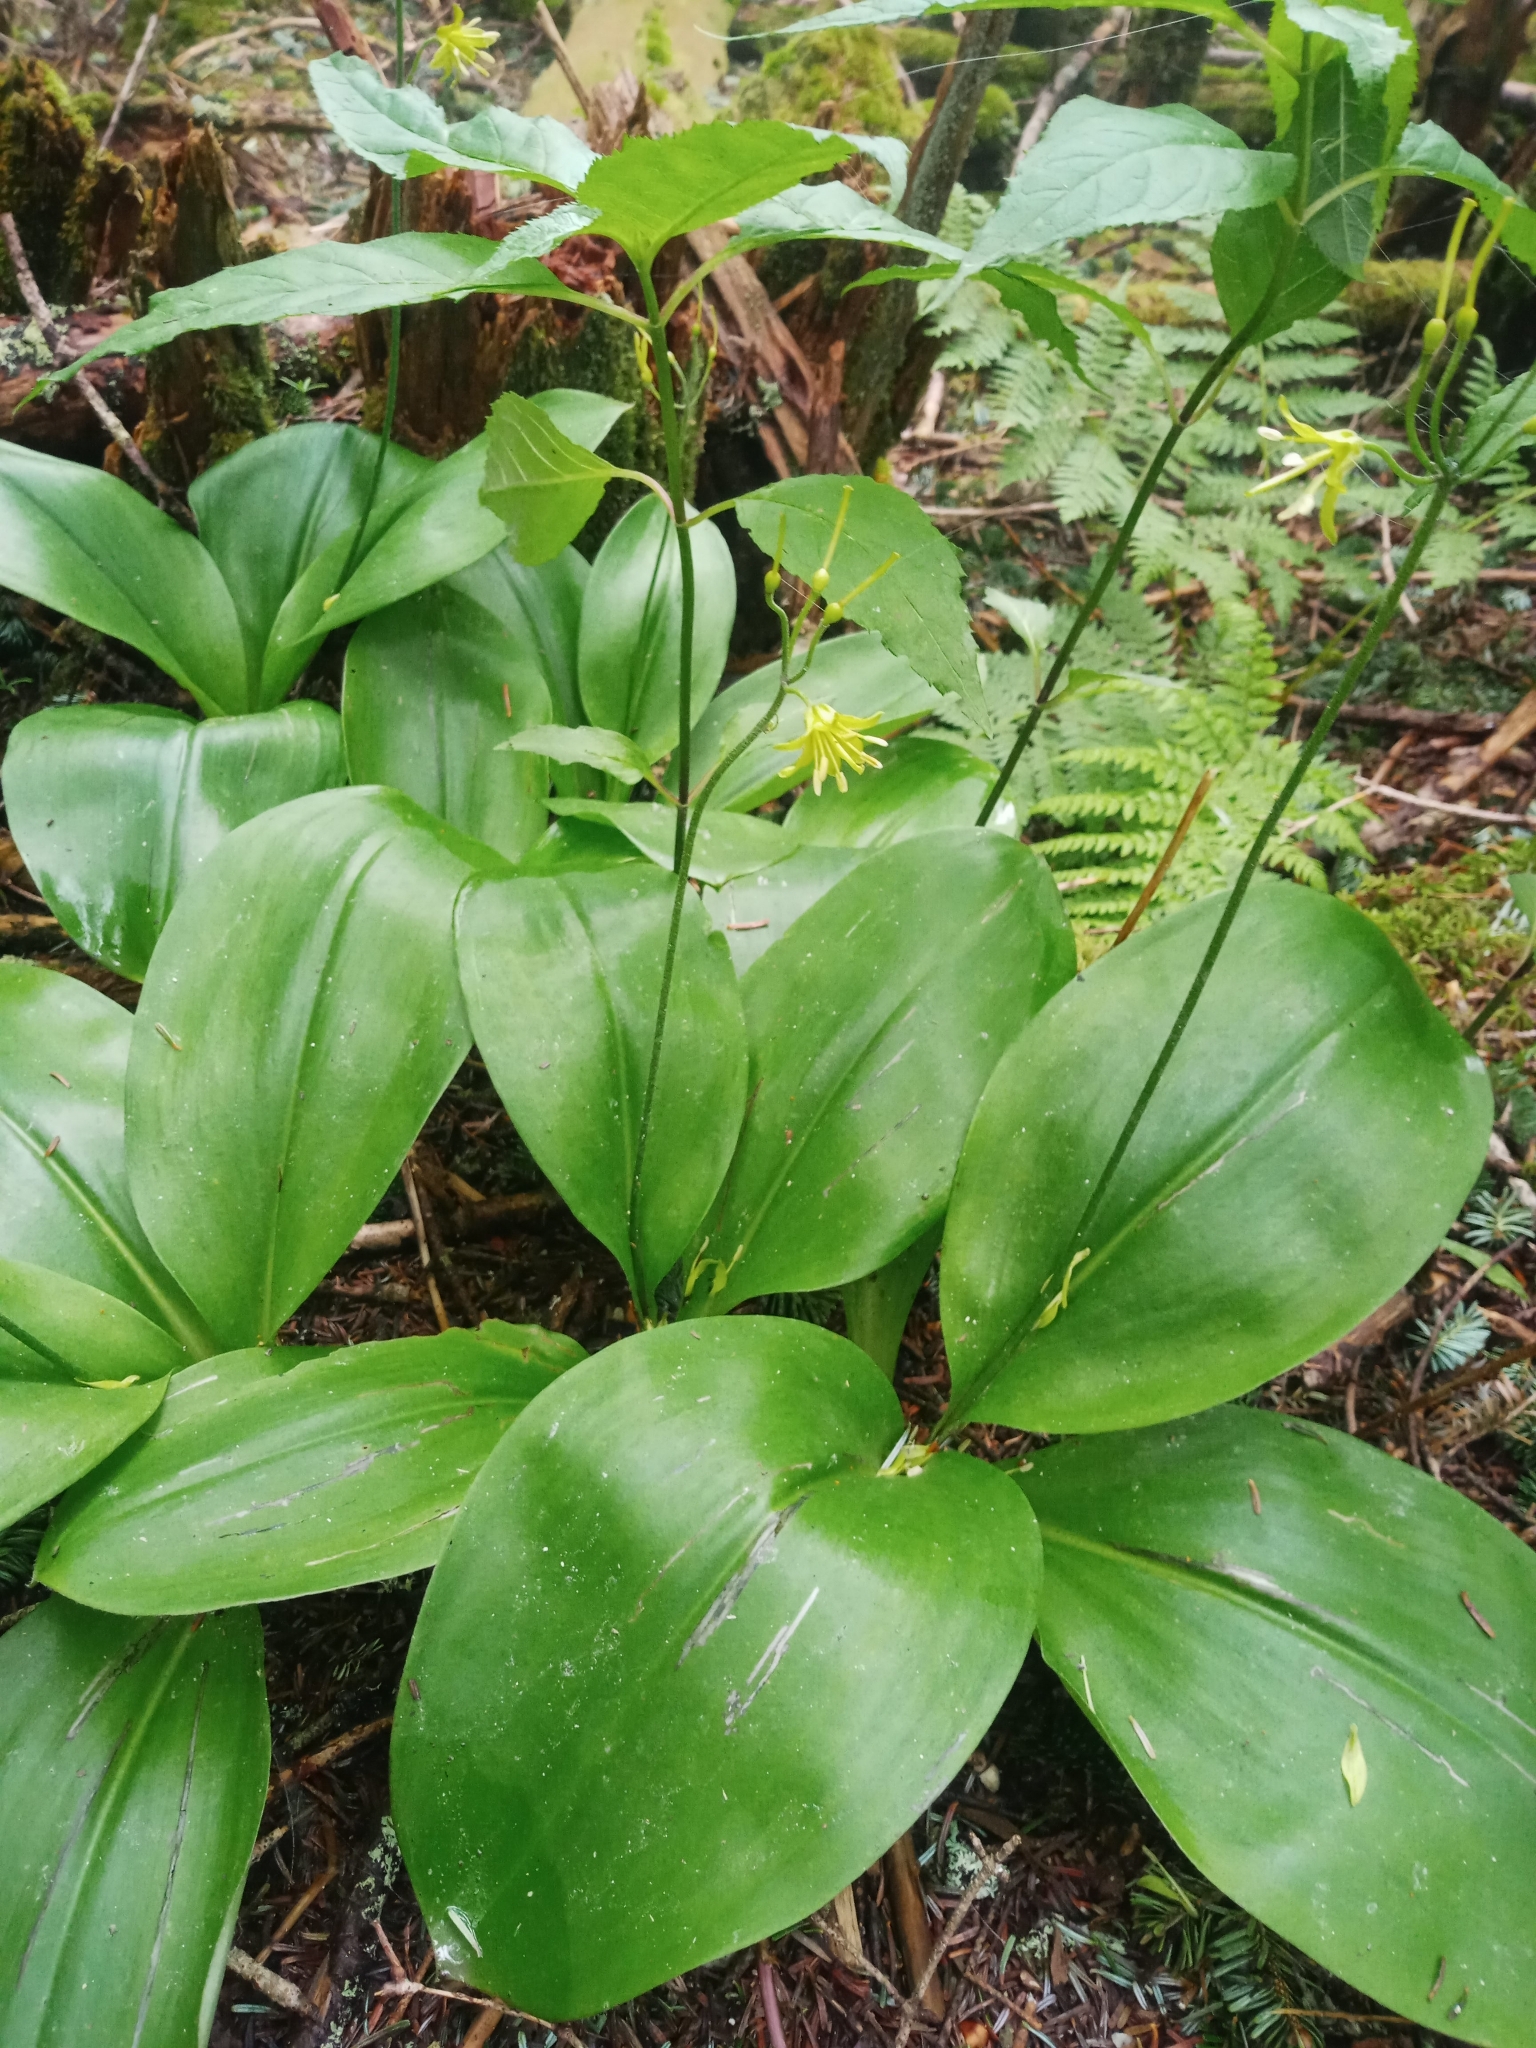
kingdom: Plantae
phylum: Tracheophyta
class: Liliopsida
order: Liliales
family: Liliaceae
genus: Clintonia
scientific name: Clintonia borealis
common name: Yellow clintonia
